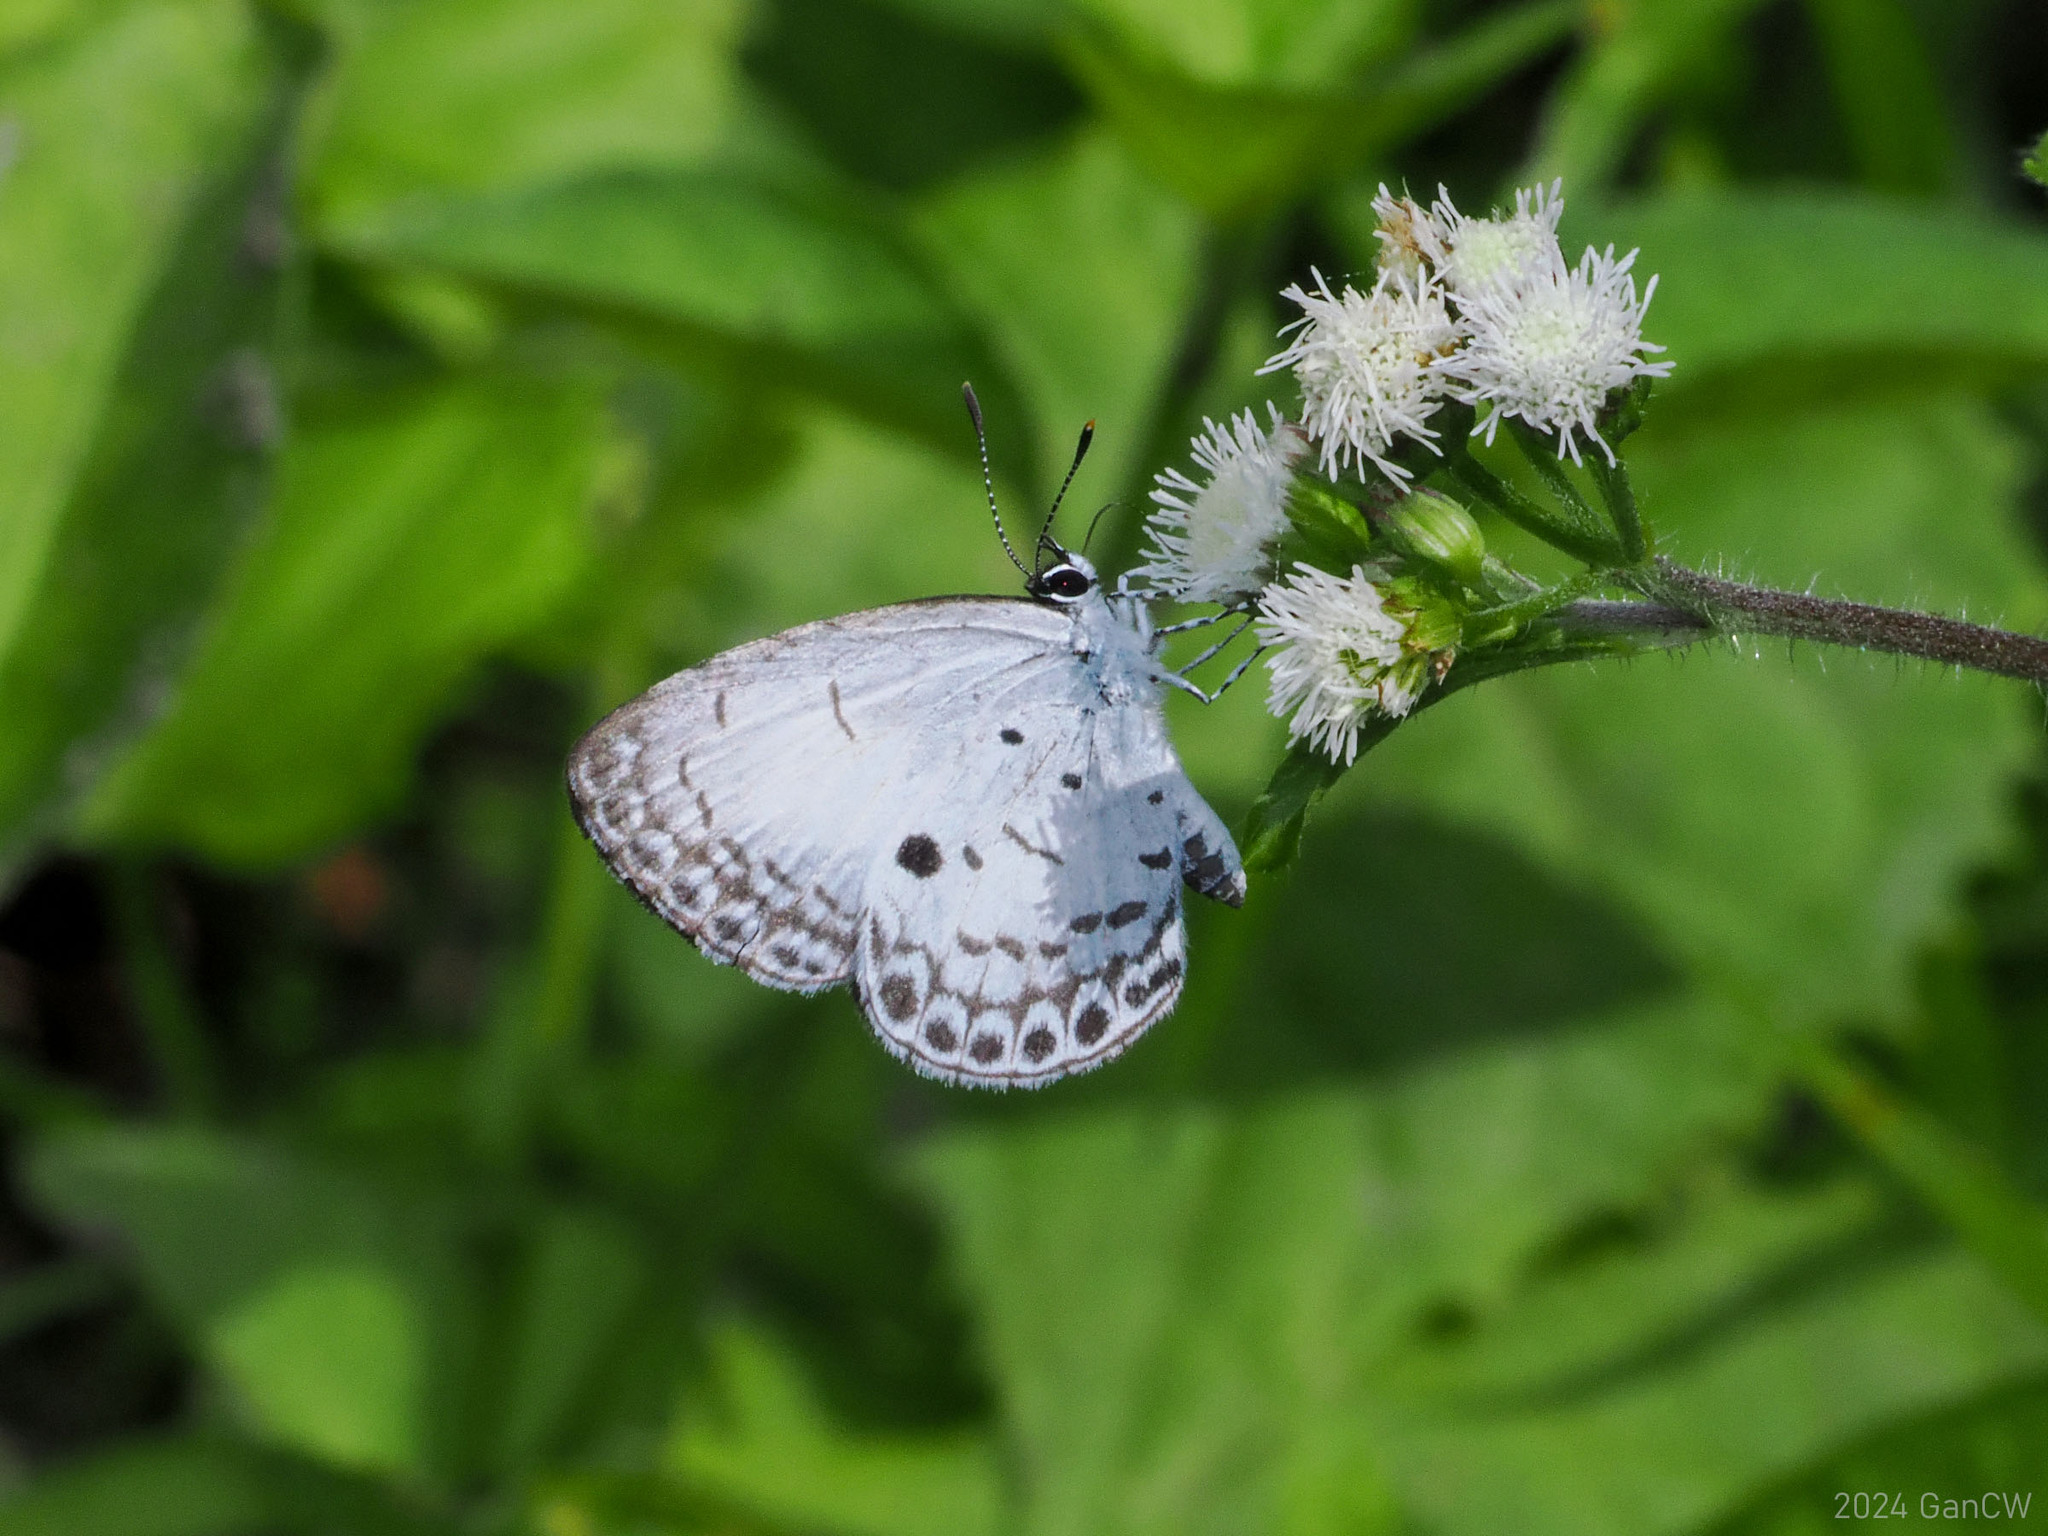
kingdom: Animalia
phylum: Arthropoda
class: Insecta
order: Lepidoptera
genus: Sancterila
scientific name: Sancterila
